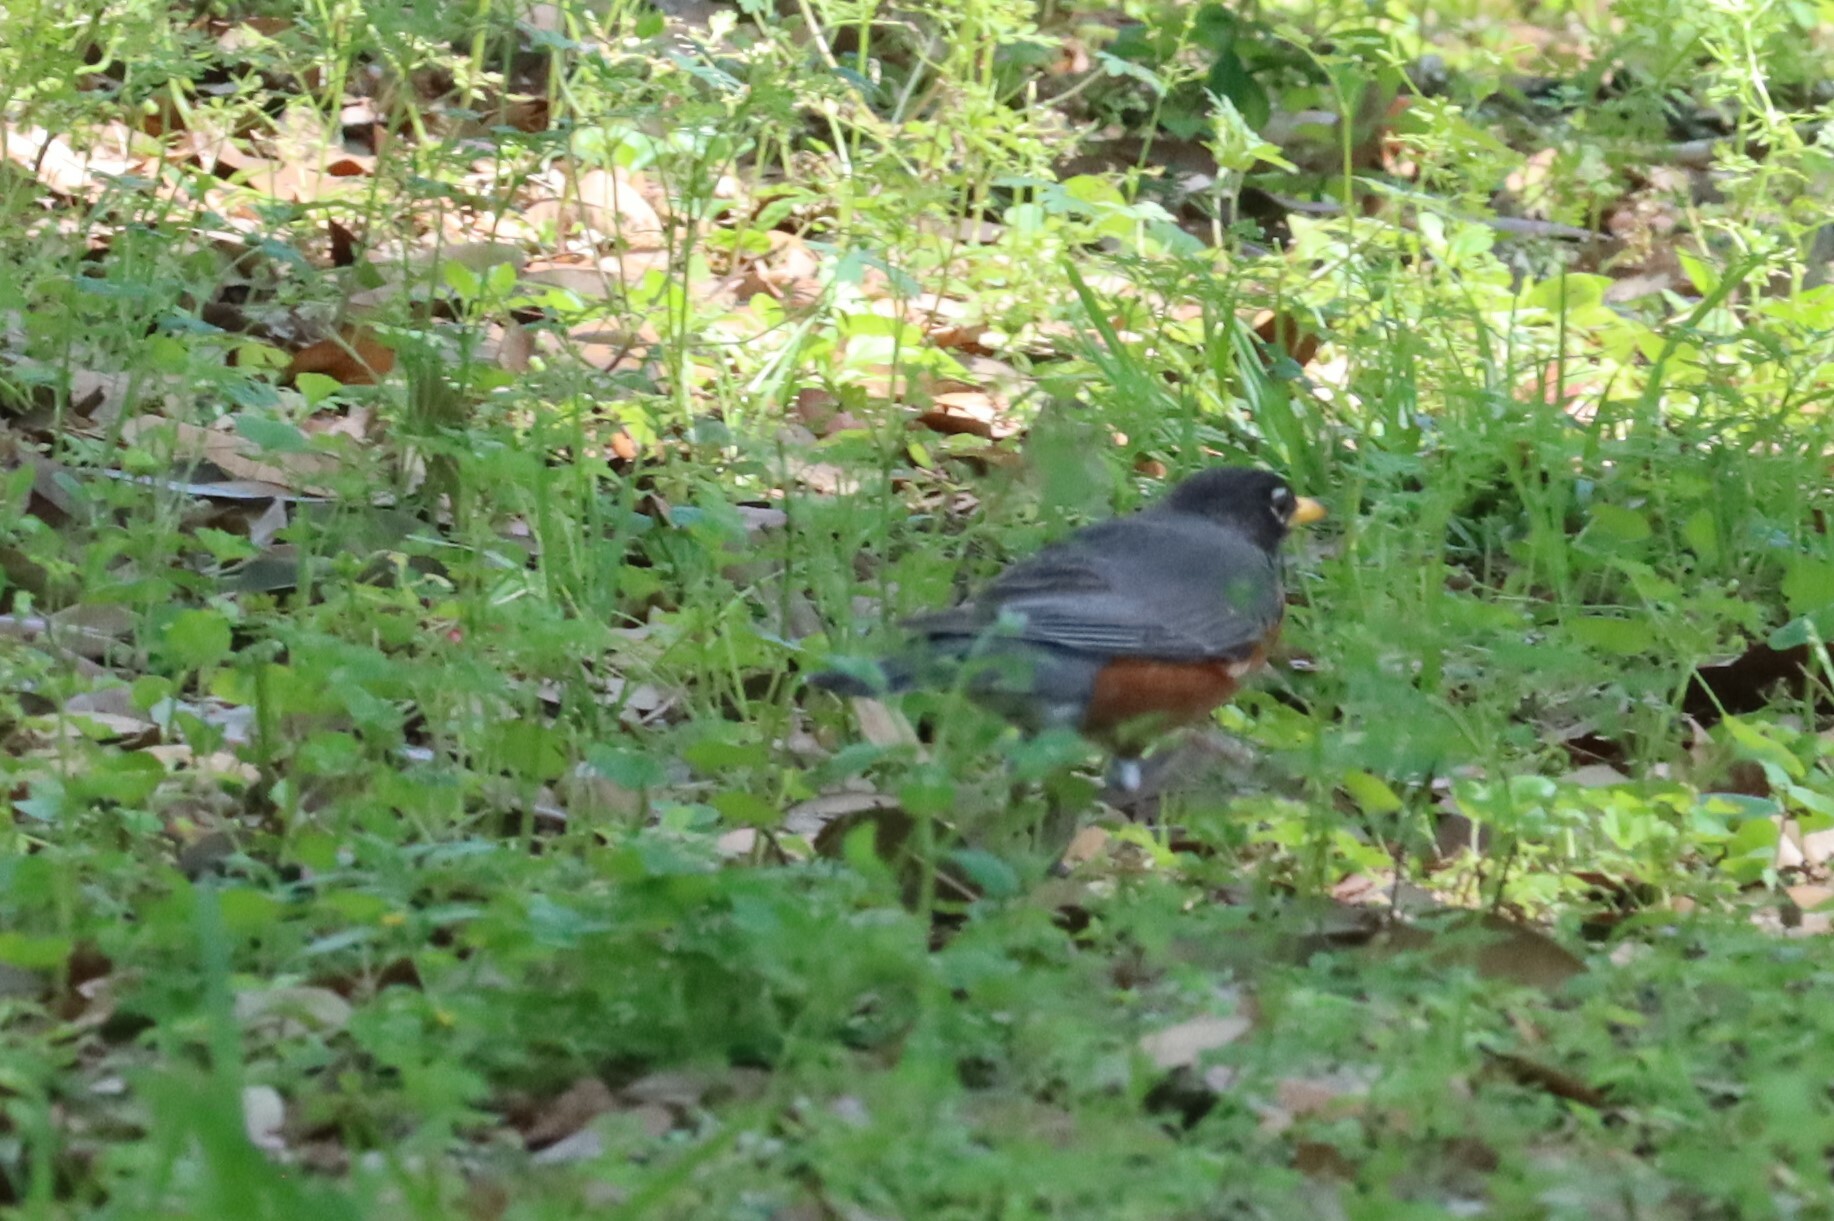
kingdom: Animalia
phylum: Chordata
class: Aves
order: Passeriformes
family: Turdidae
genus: Turdus
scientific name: Turdus migratorius
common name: American robin
